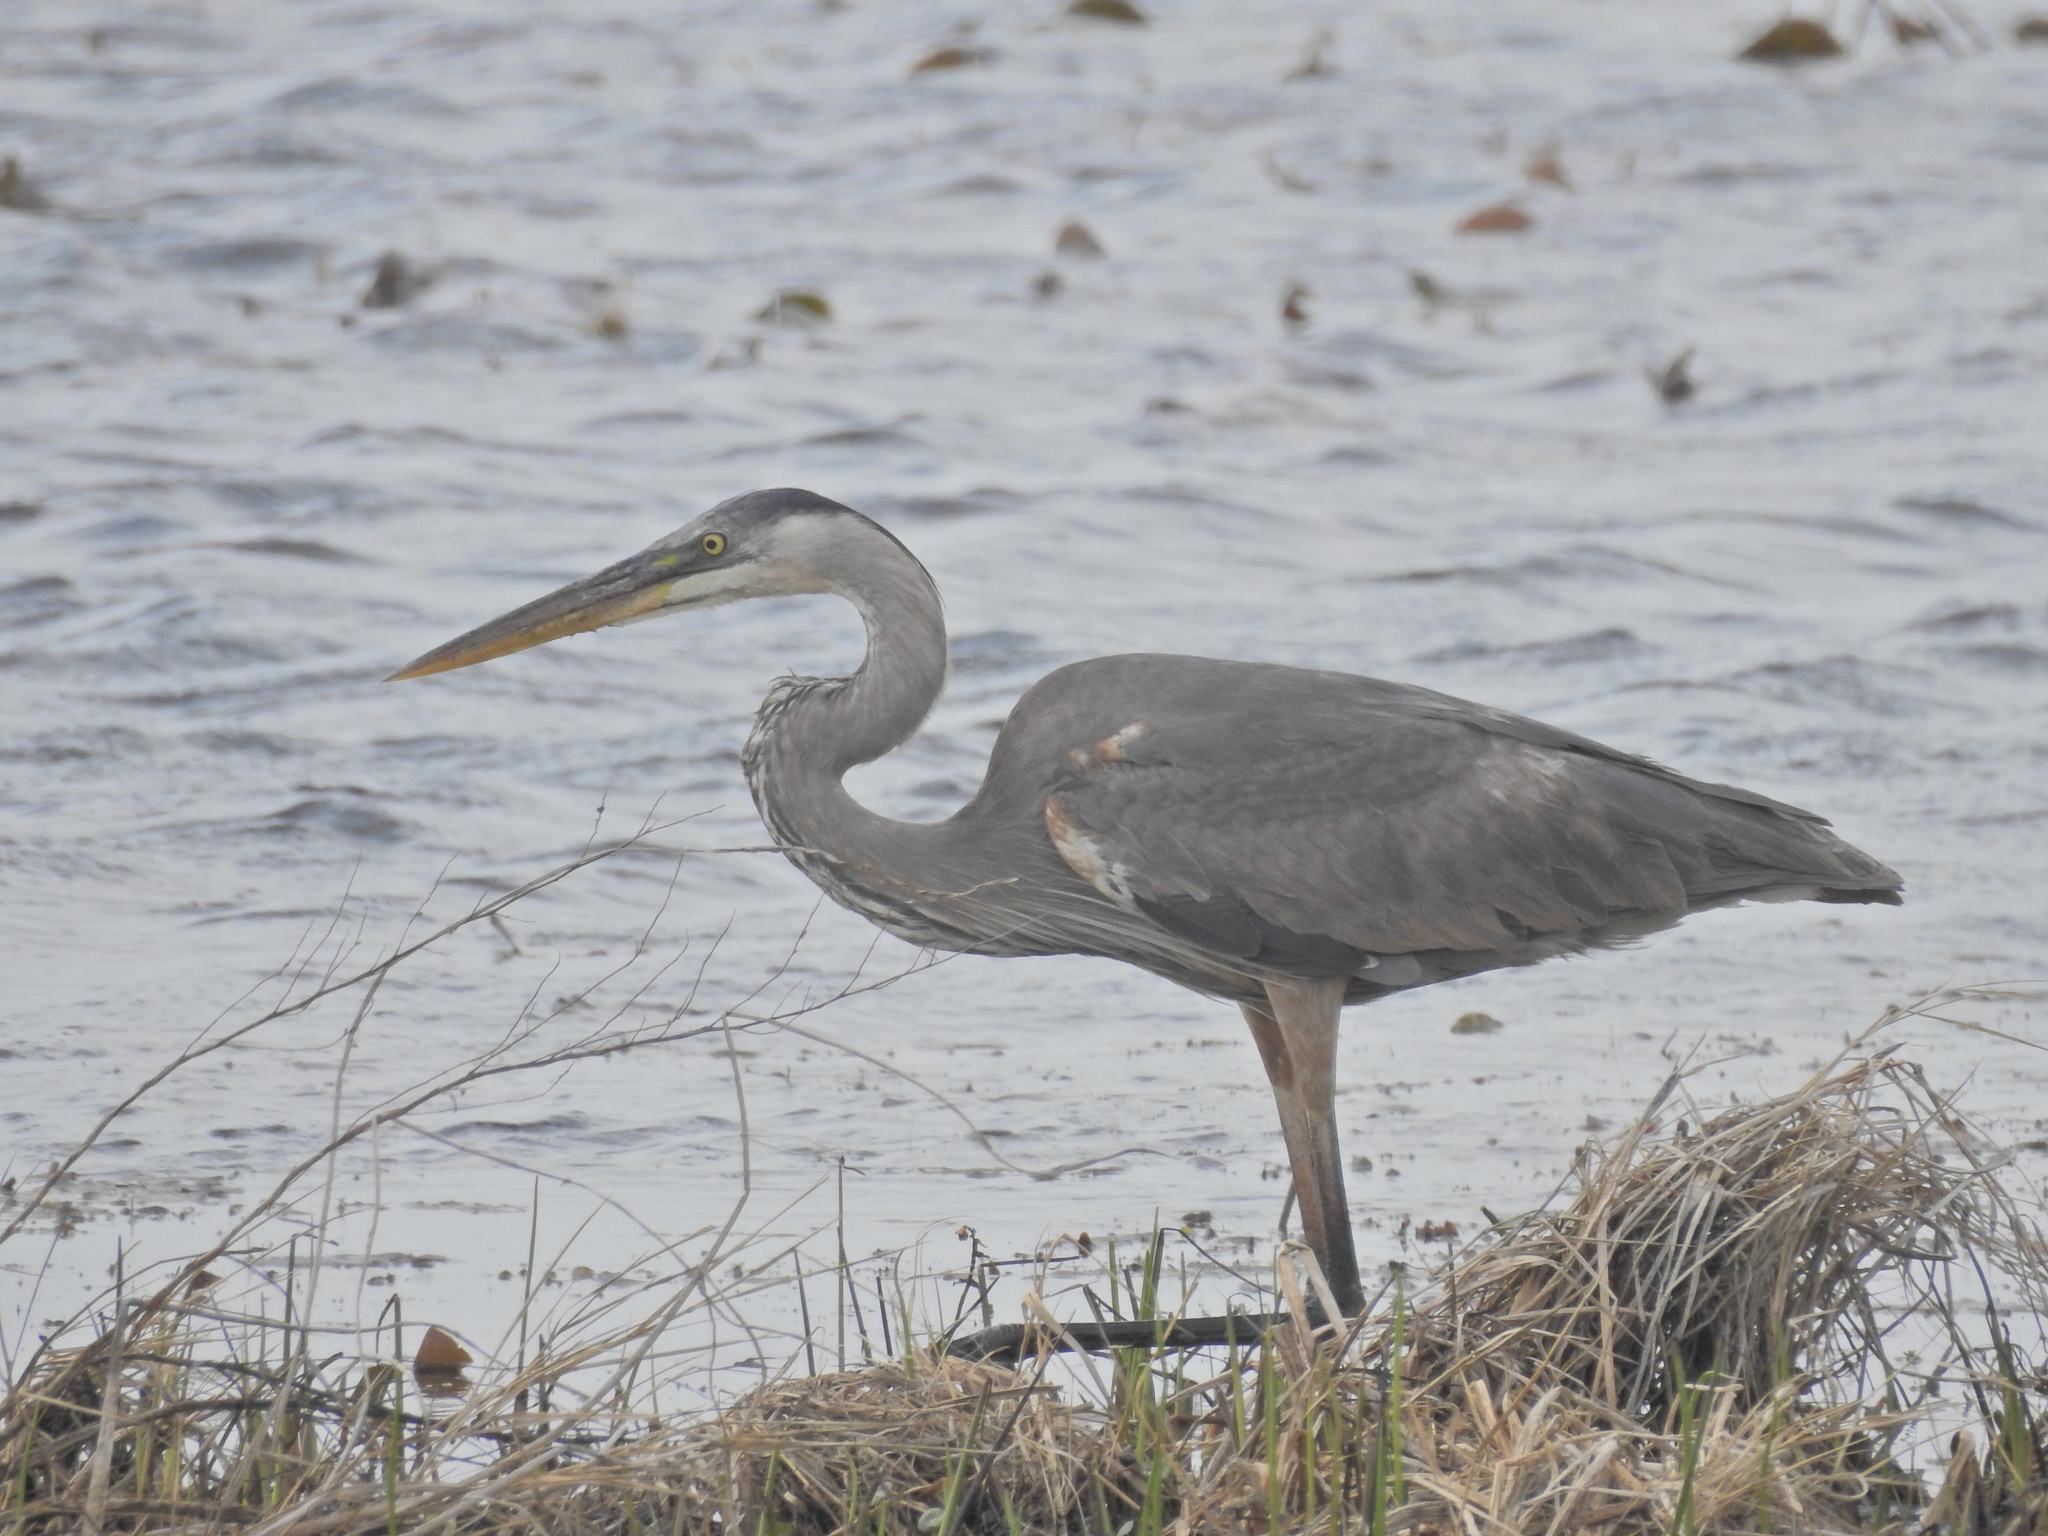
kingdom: Animalia
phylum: Chordata
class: Aves
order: Pelecaniformes
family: Ardeidae
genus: Ardea
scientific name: Ardea herodias
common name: Great blue heron
